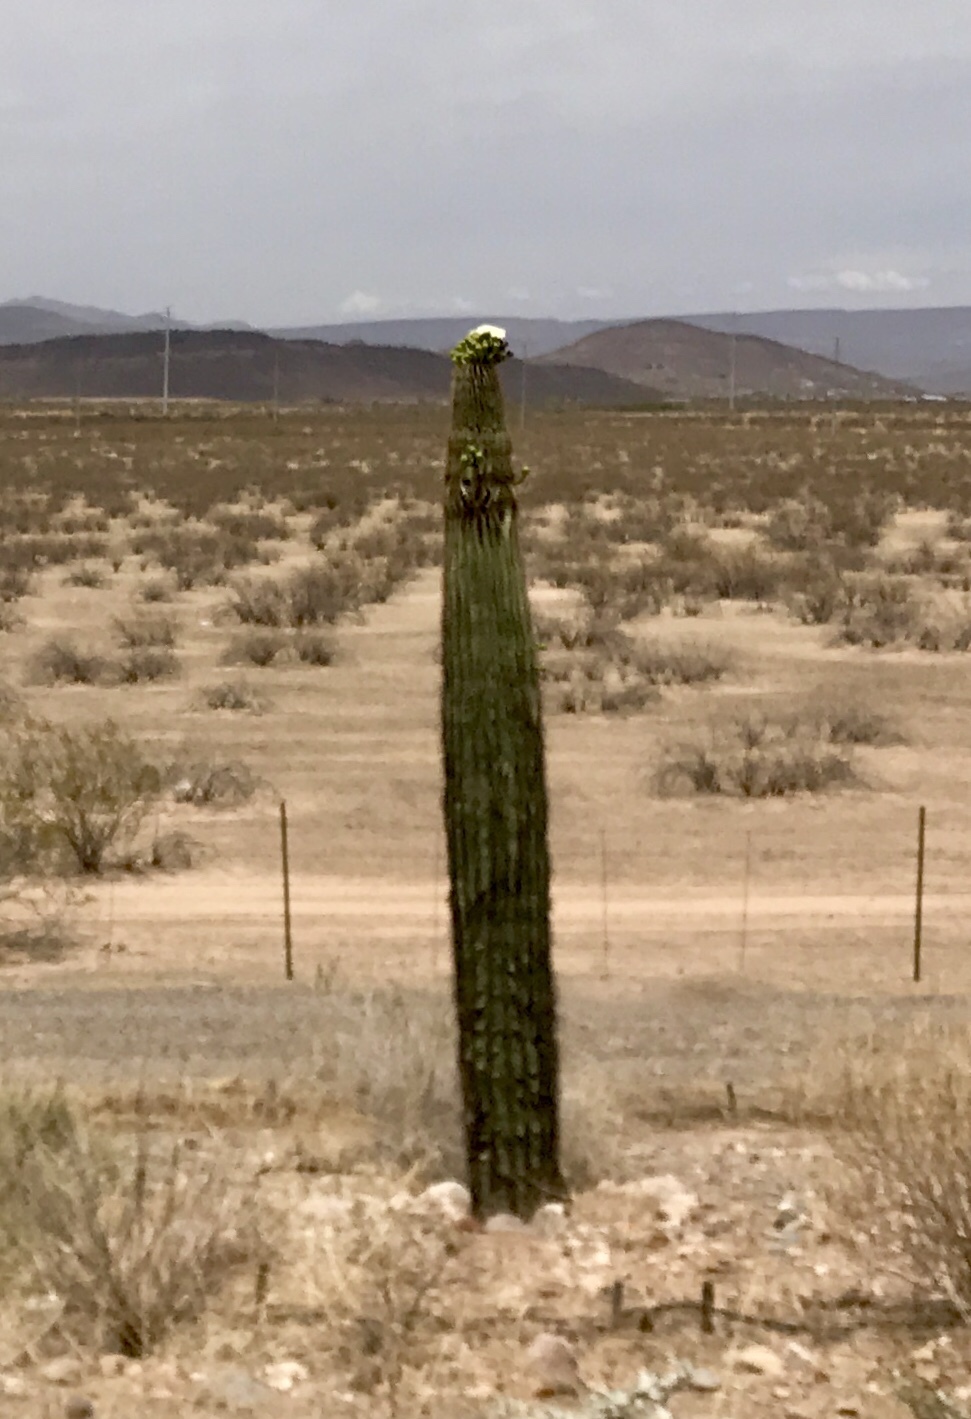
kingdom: Plantae
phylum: Tracheophyta
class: Magnoliopsida
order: Caryophyllales
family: Cactaceae
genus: Carnegiea
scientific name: Carnegiea gigantea
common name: Saguaro
